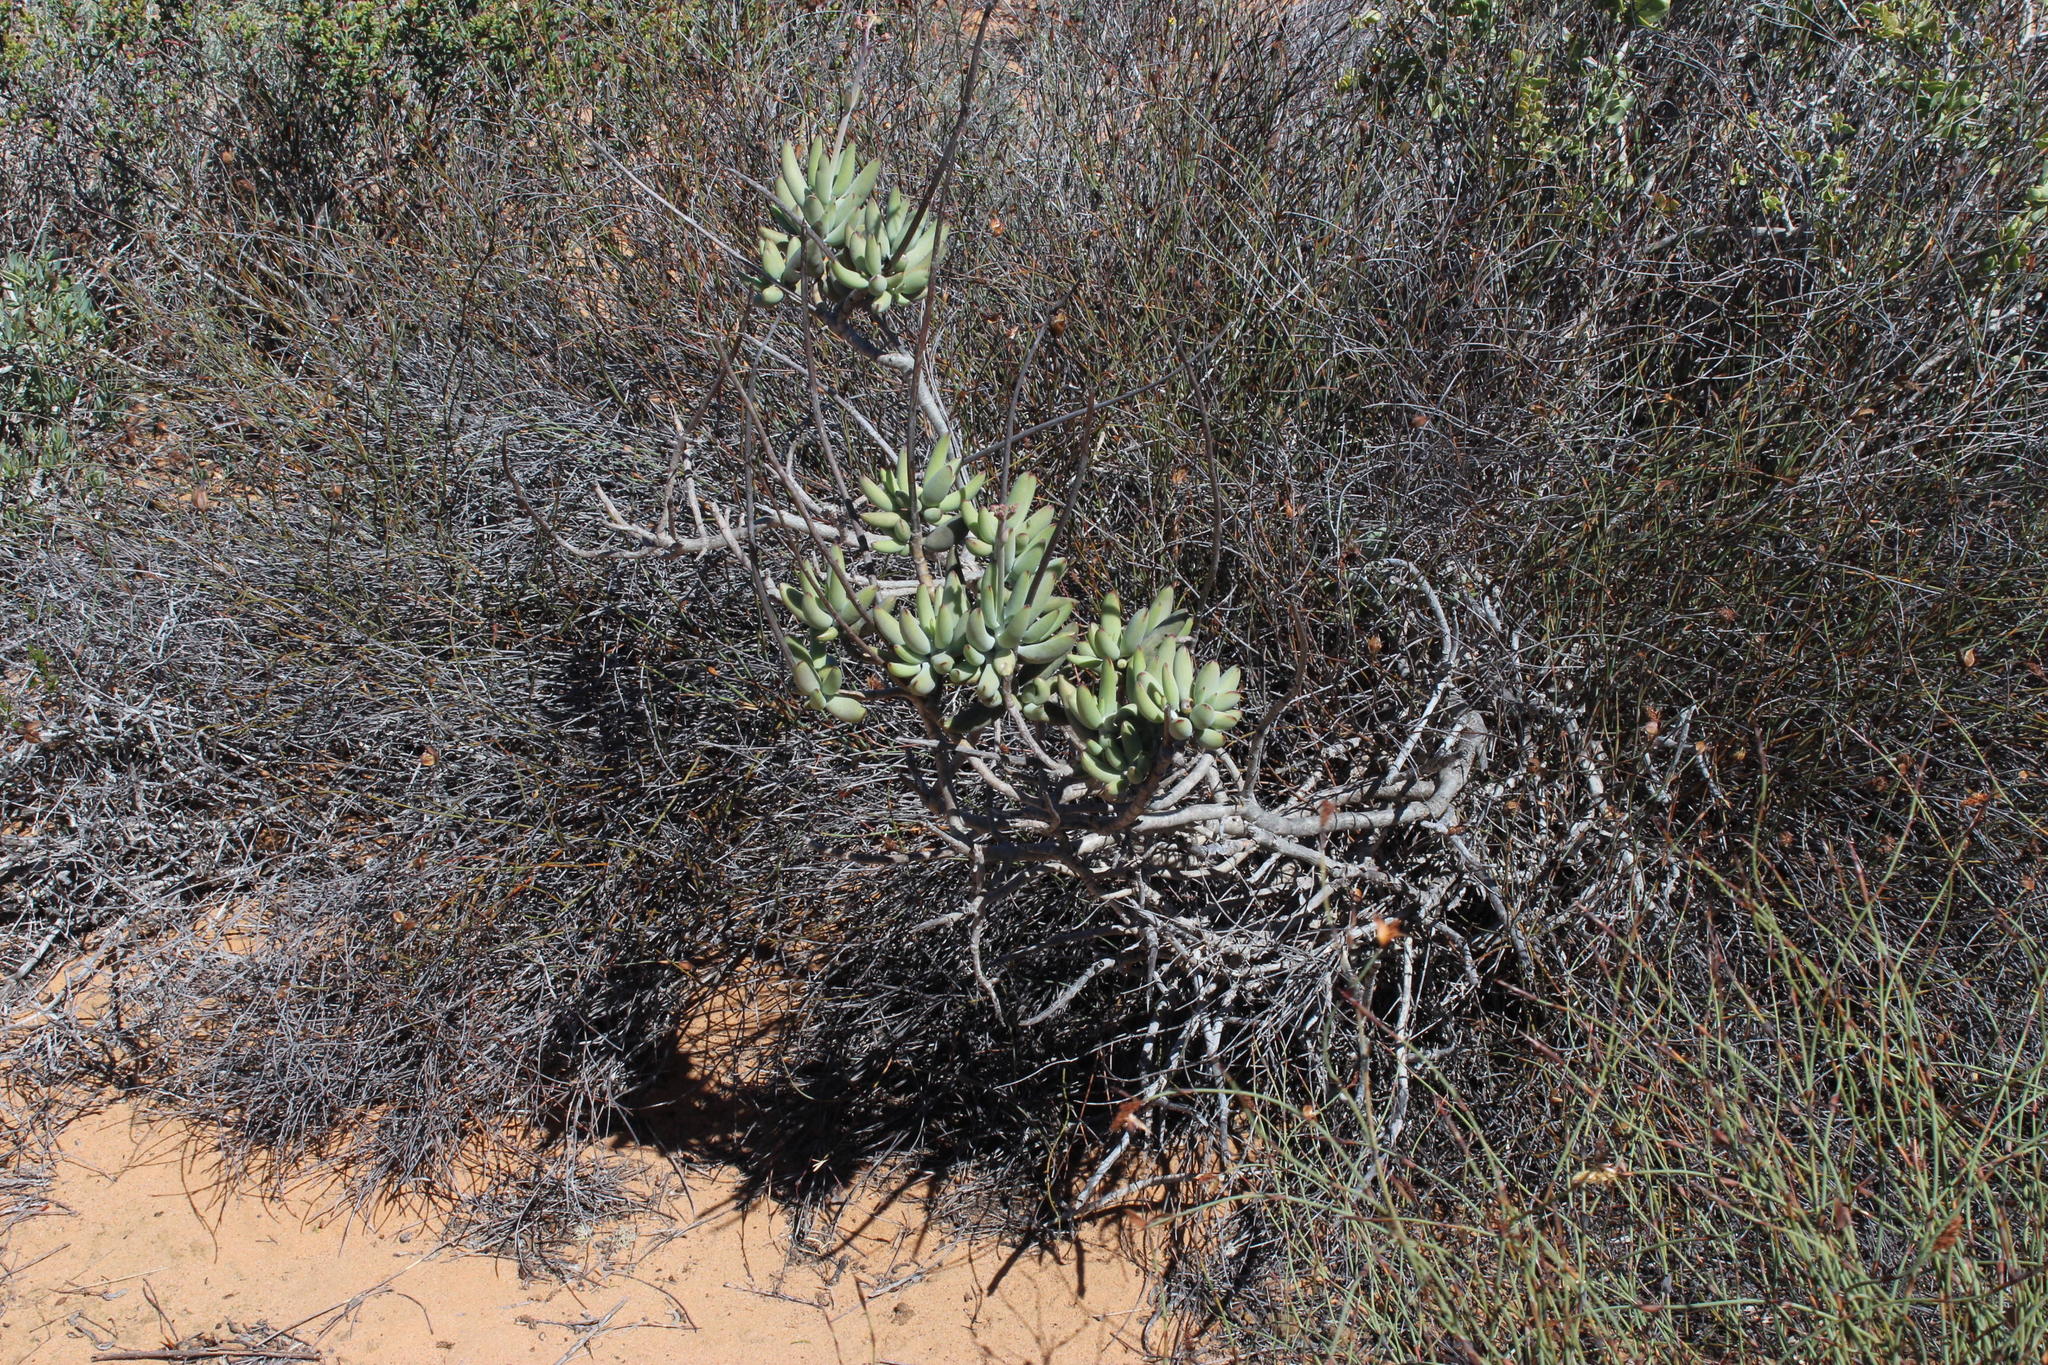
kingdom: Plantae
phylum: Tracheophyta
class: Magnoliopsida
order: Saxifragales
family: Crassulaceae
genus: Cotyledon
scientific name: Cotyledon orbiculata
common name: Pig's ear
